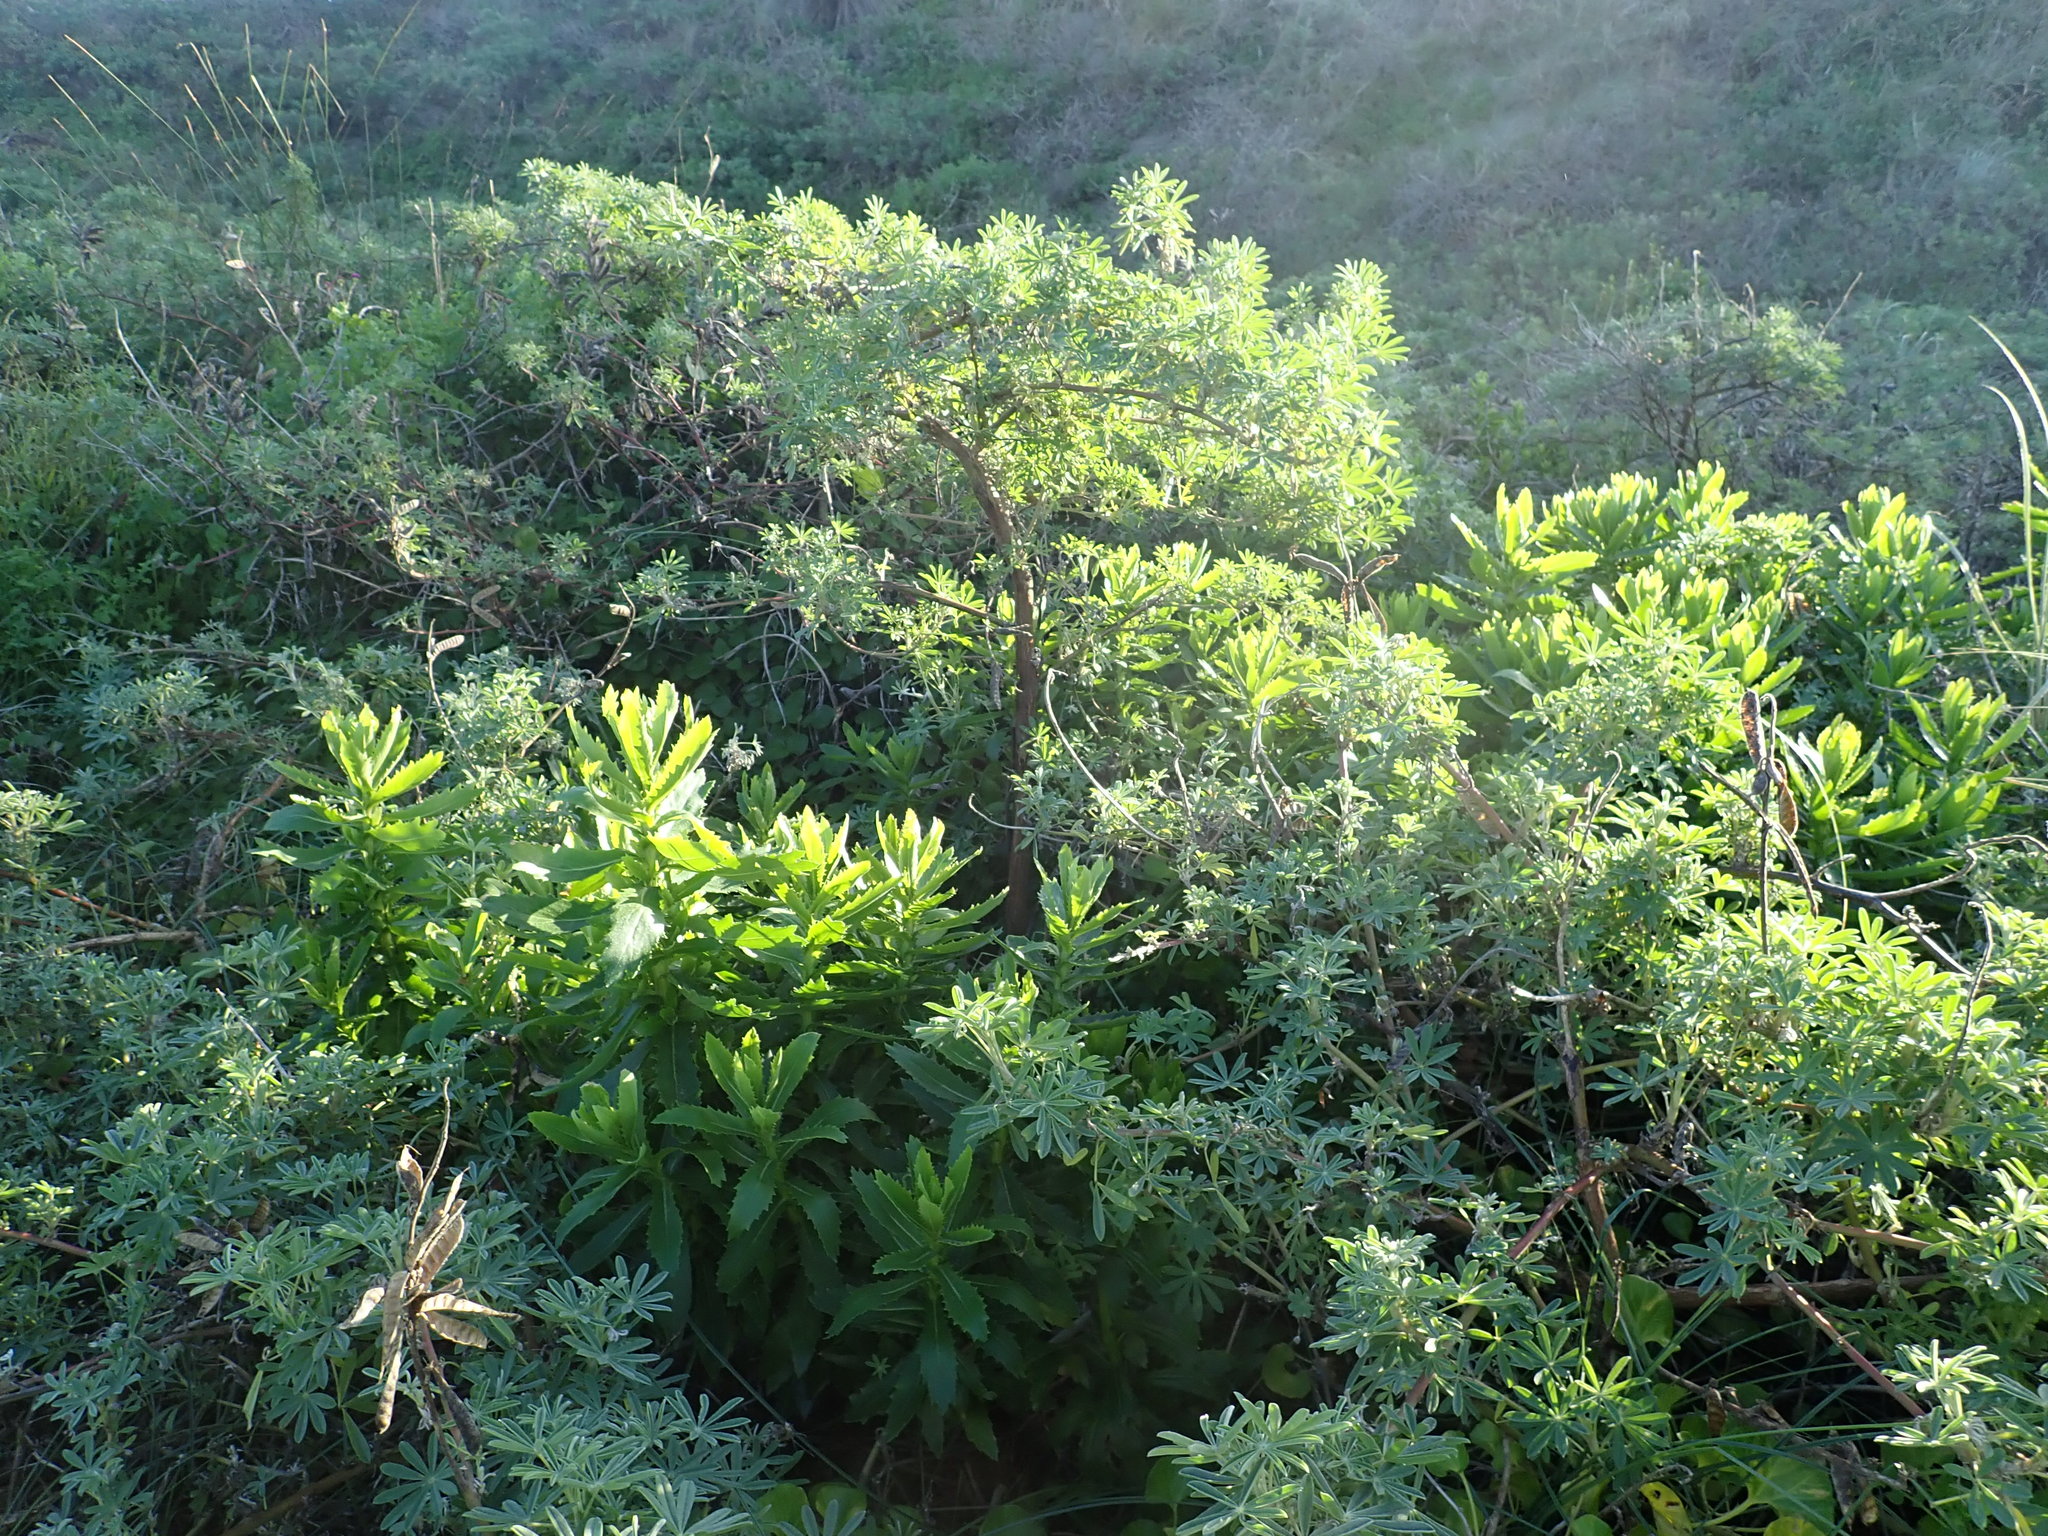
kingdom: Plantae
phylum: Tracheophyta
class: Magnoliopsida
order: Asterales
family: Asteraceae
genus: Senecio
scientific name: Senecio glastifolius
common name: Woad-leaved ragwort
